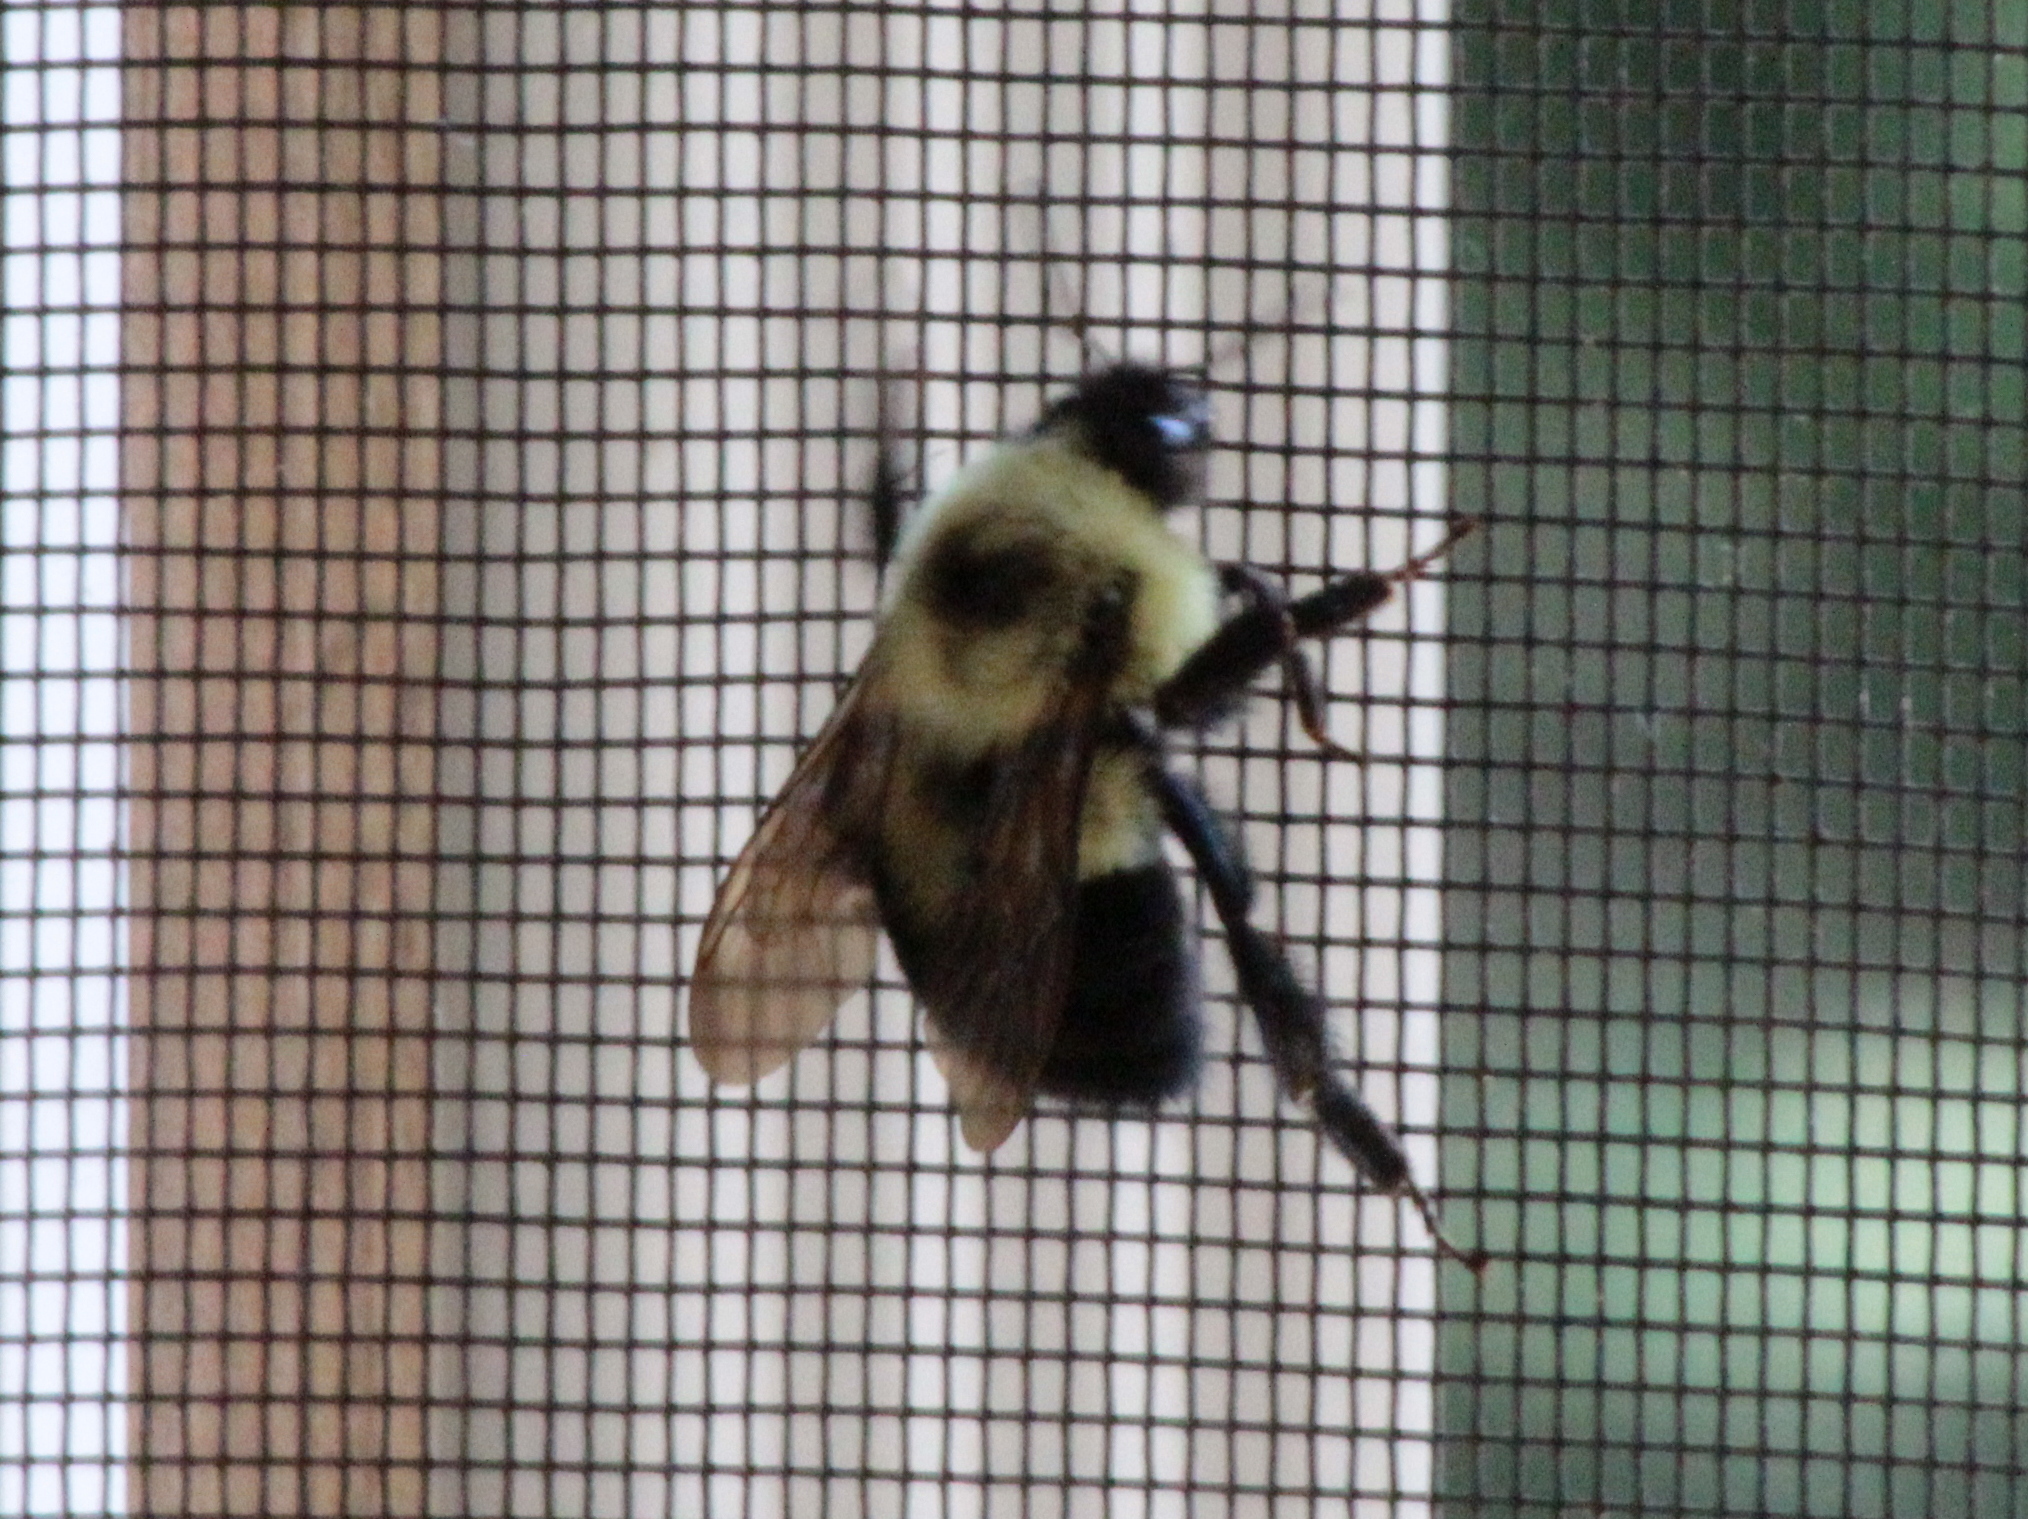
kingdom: Animalia
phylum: Arthropoda
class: Insecta
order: Hymenoptera
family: Apidae
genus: Bombus
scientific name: Bombus bimaculatus
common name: Two-spotted bumble bee
